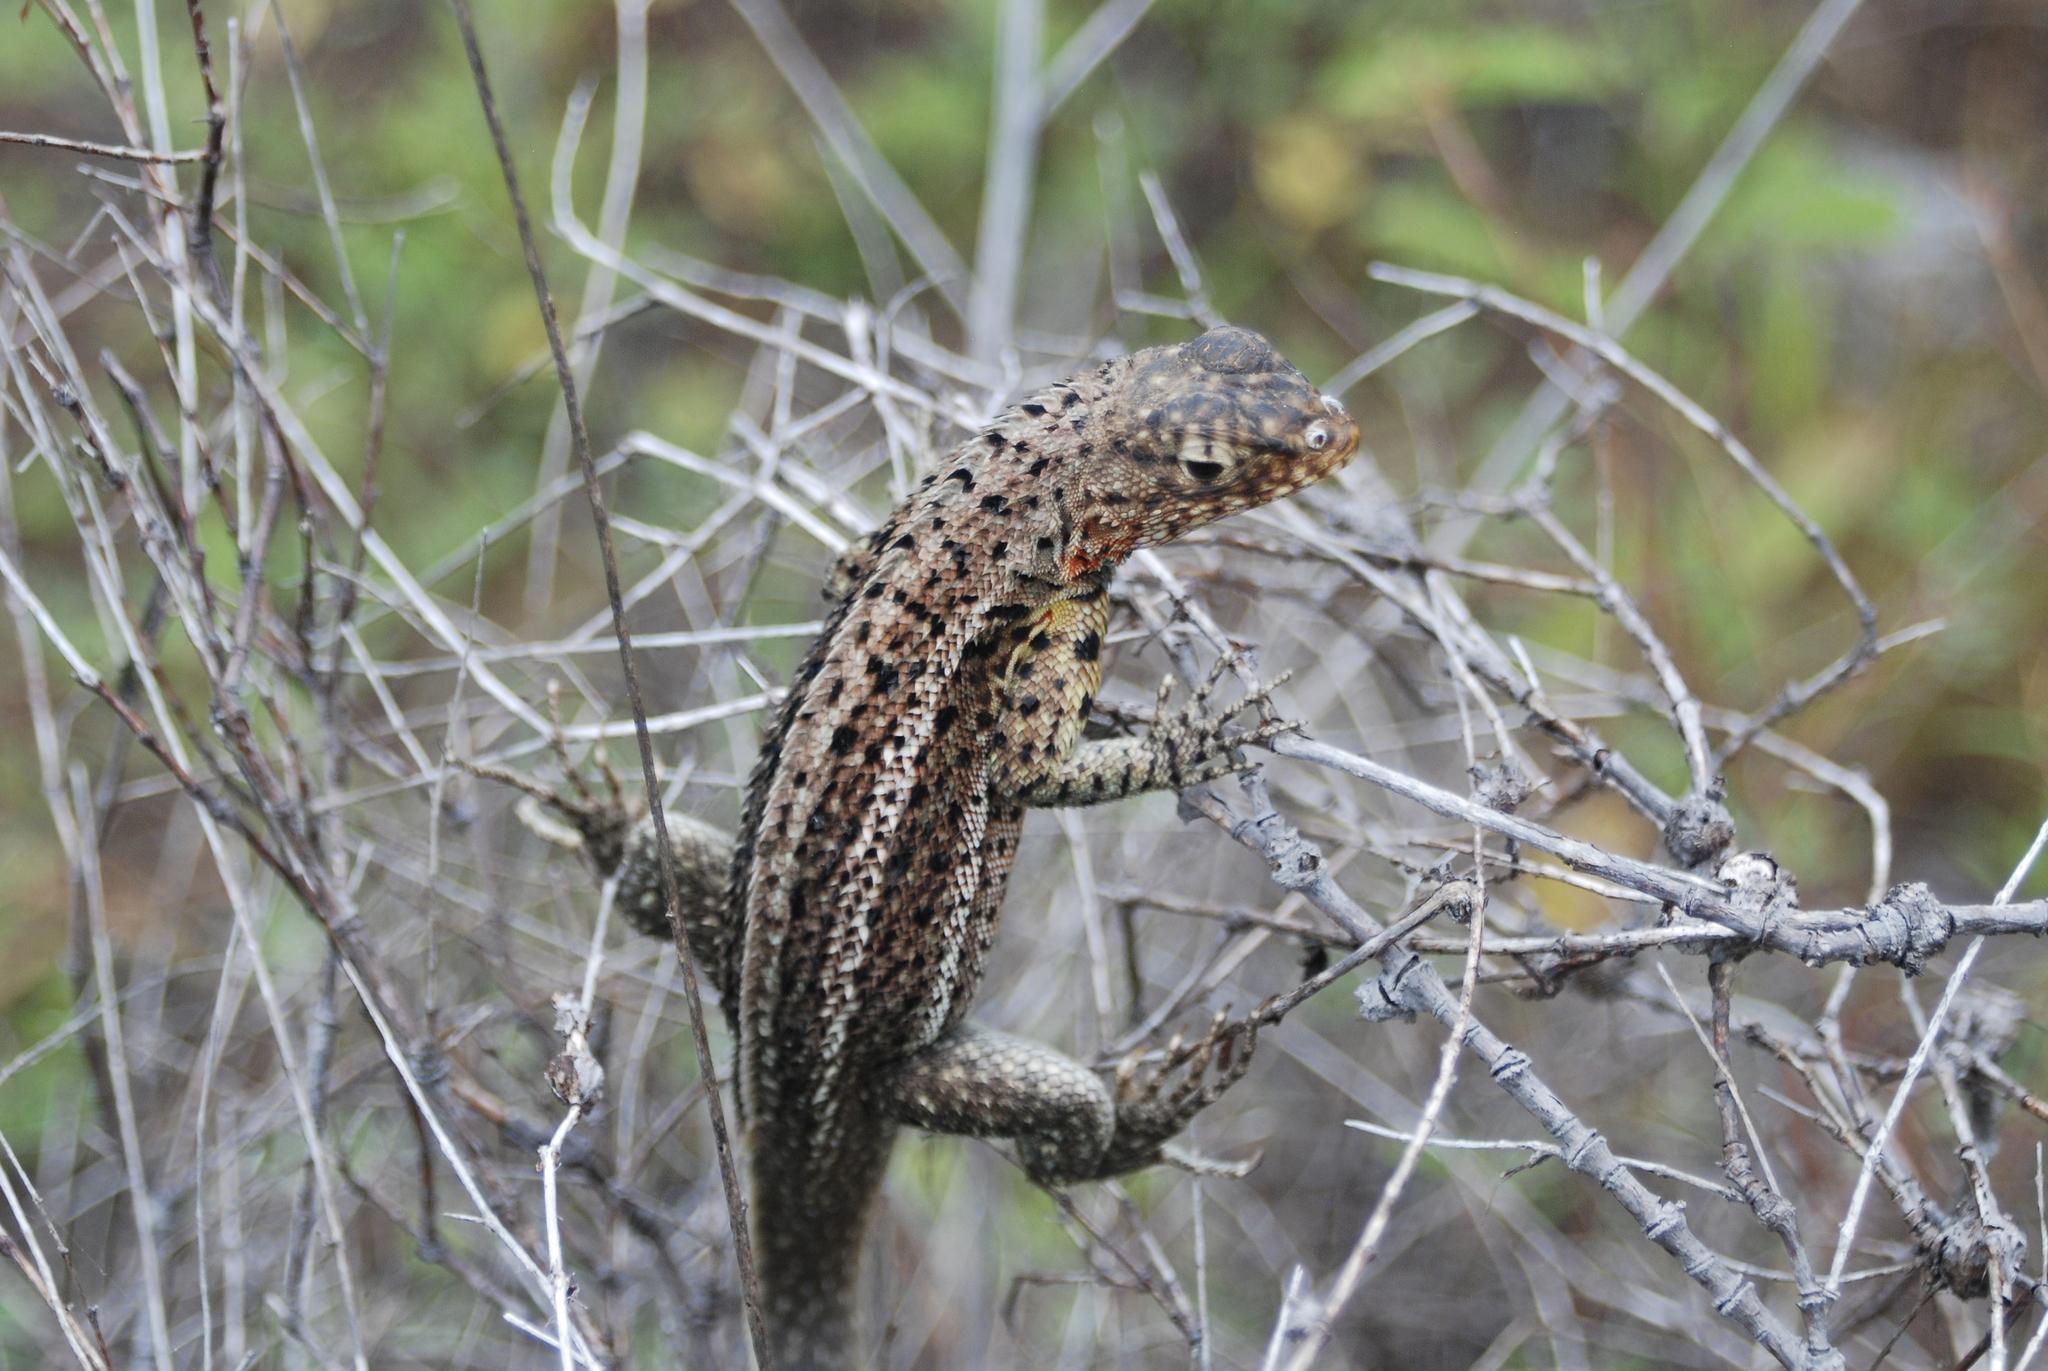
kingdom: Animalia
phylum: Chordata
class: Squamata
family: Tropiduridae
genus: Microlophus
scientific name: Microlophus jacobii
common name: Santiago lava lizard
